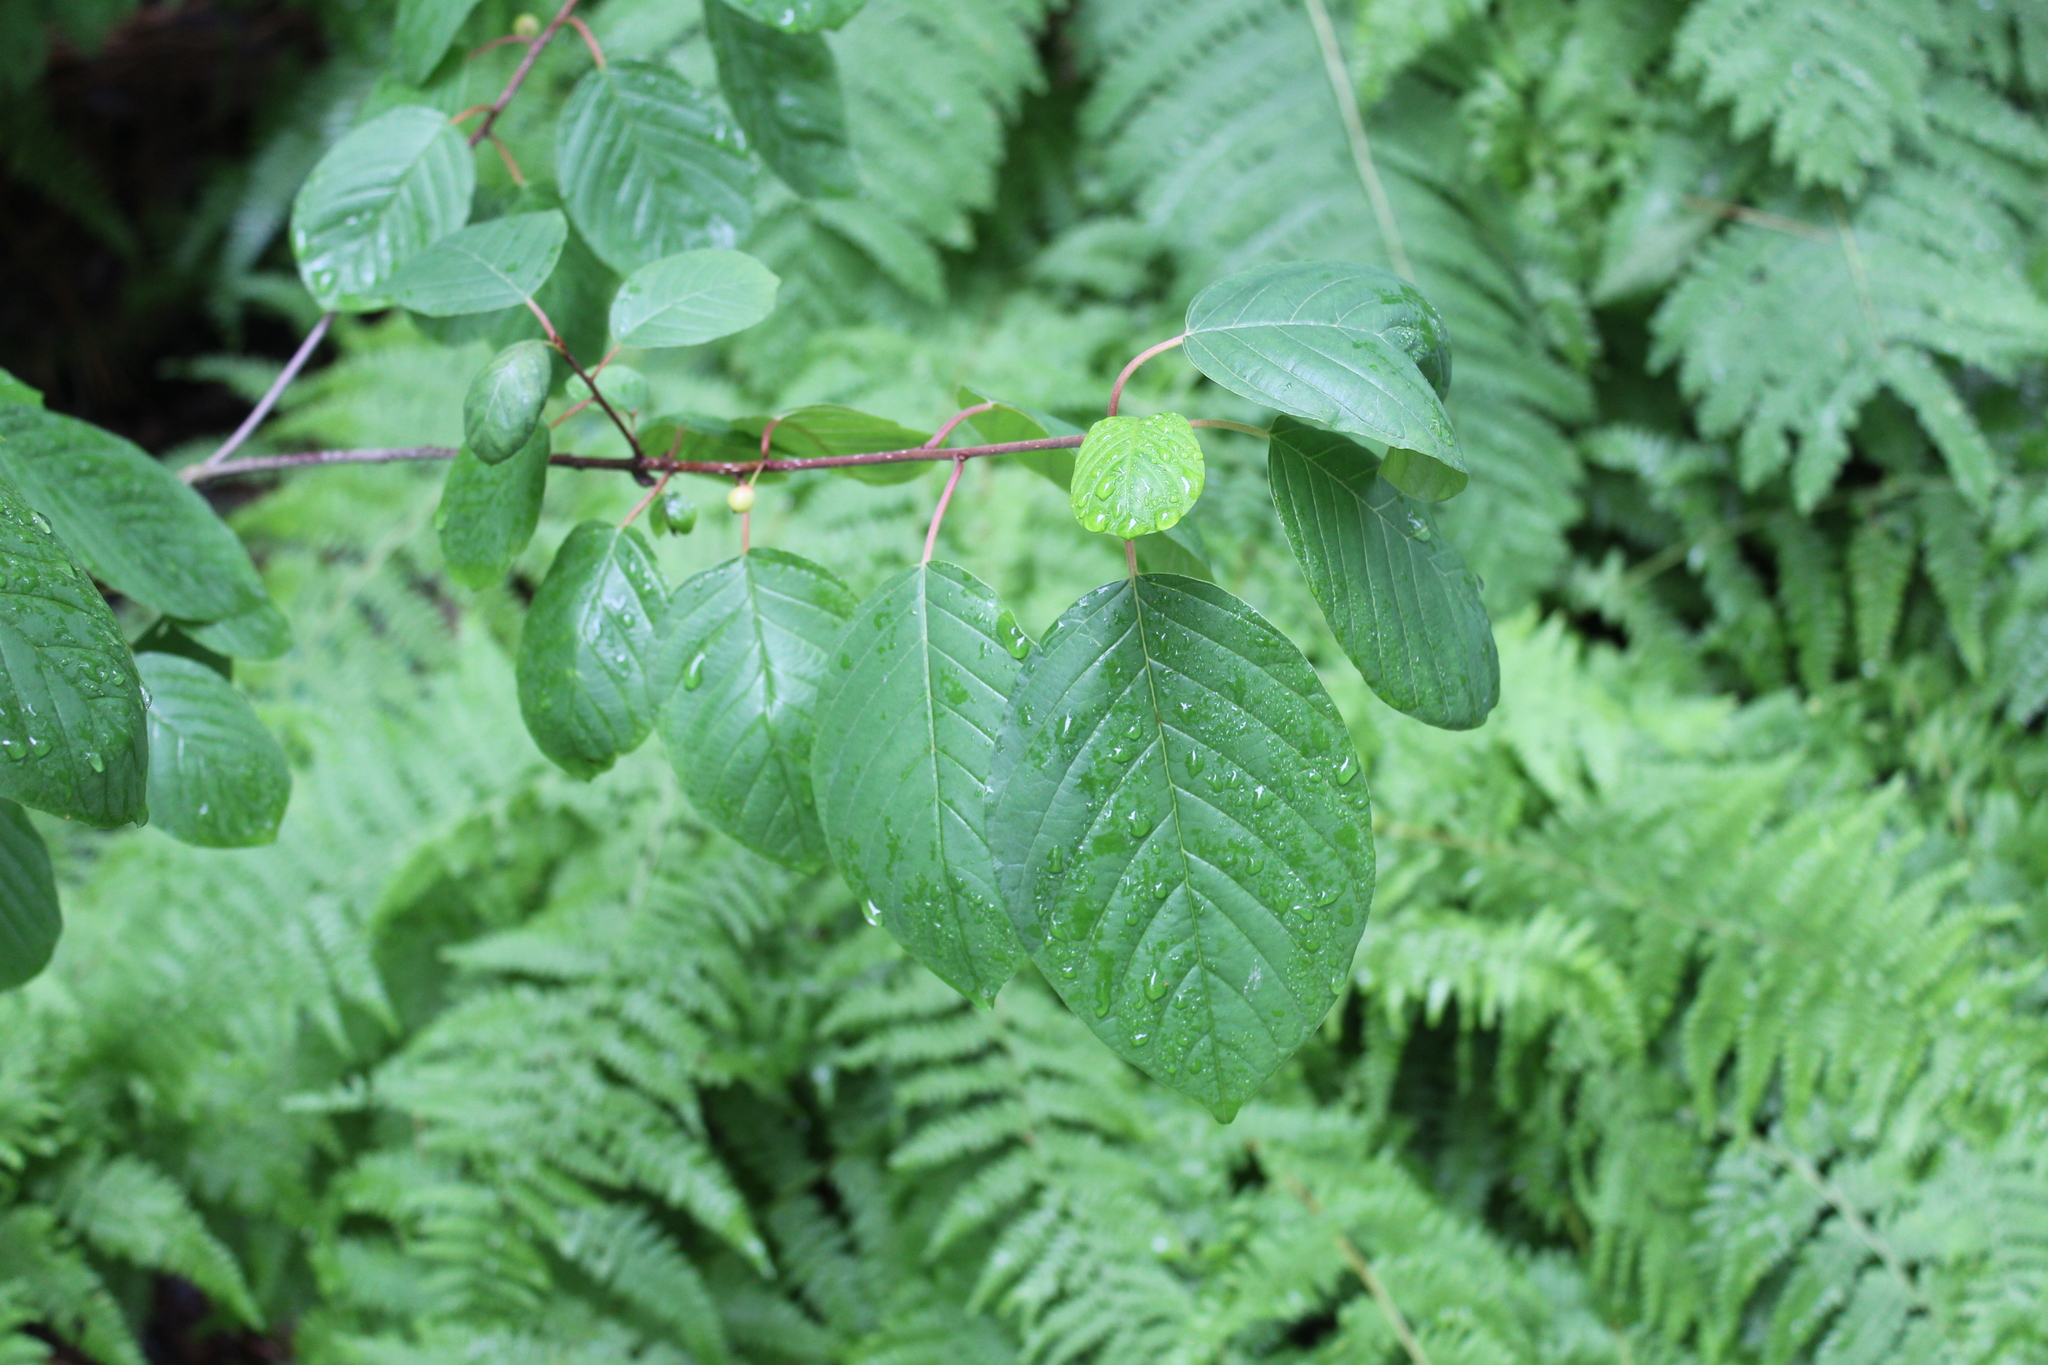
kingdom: Plantae
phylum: Tracheophyta
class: Magnoliopsida
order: Rosales
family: Rhamnaceae
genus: Frangula
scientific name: Frangula alnus
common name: Alder buckthorn
